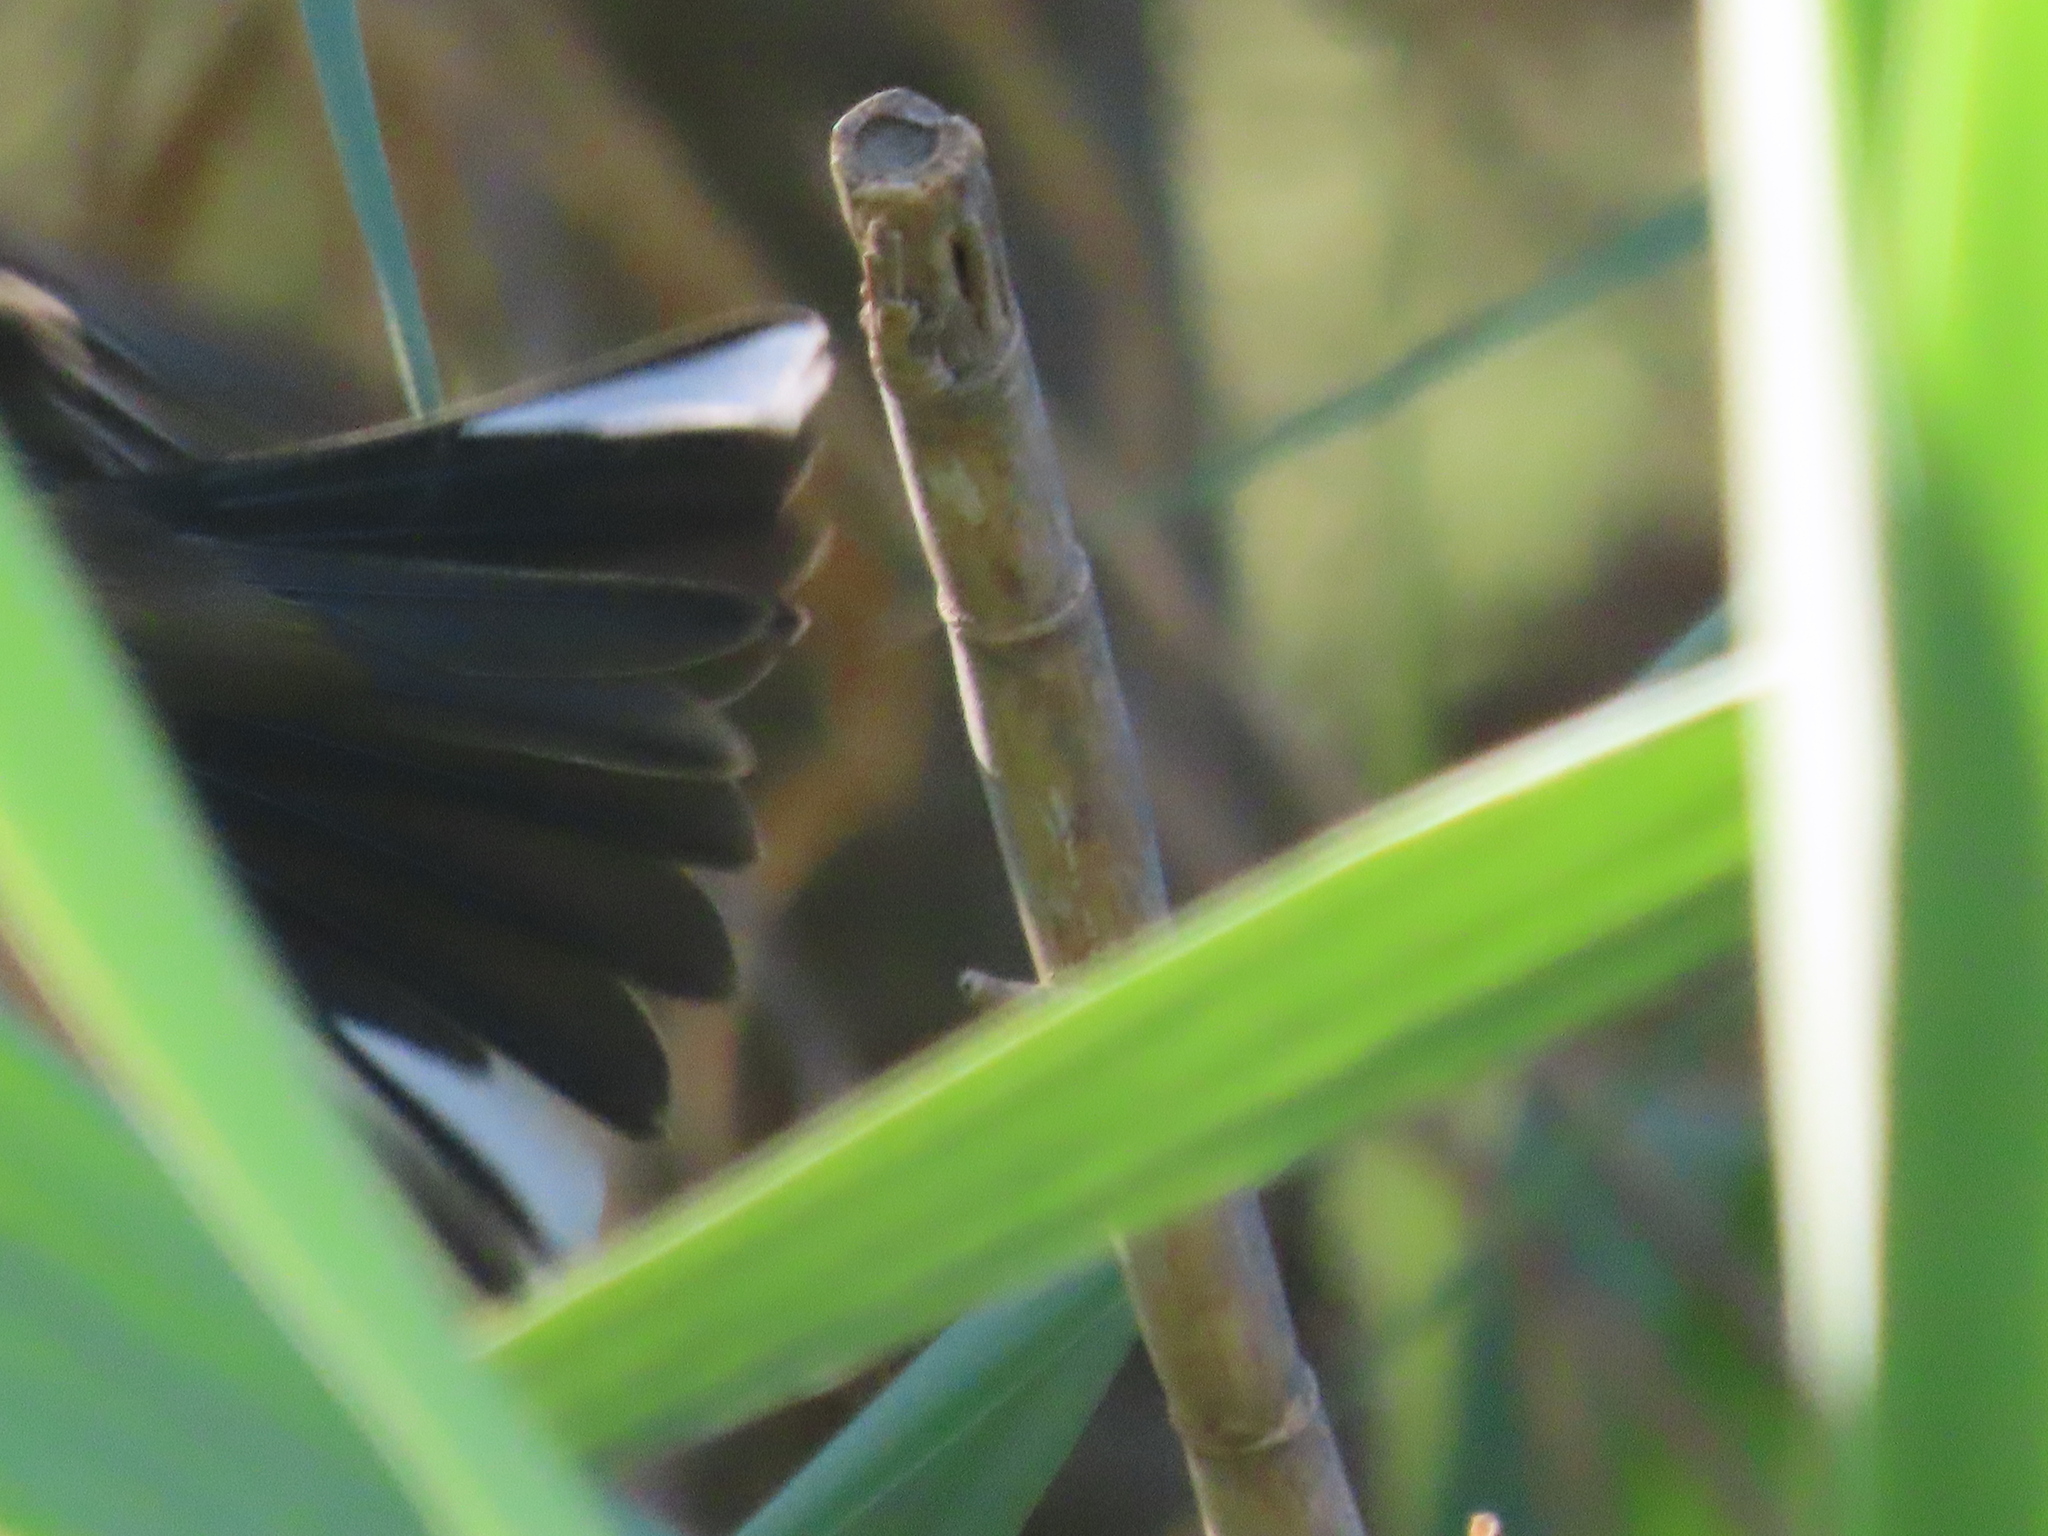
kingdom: Animalia
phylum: Chordata
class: Aves
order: Passeriformes
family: Fringillidae
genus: Fringilla
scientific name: Fringilla coelebs
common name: Common chaffinch
